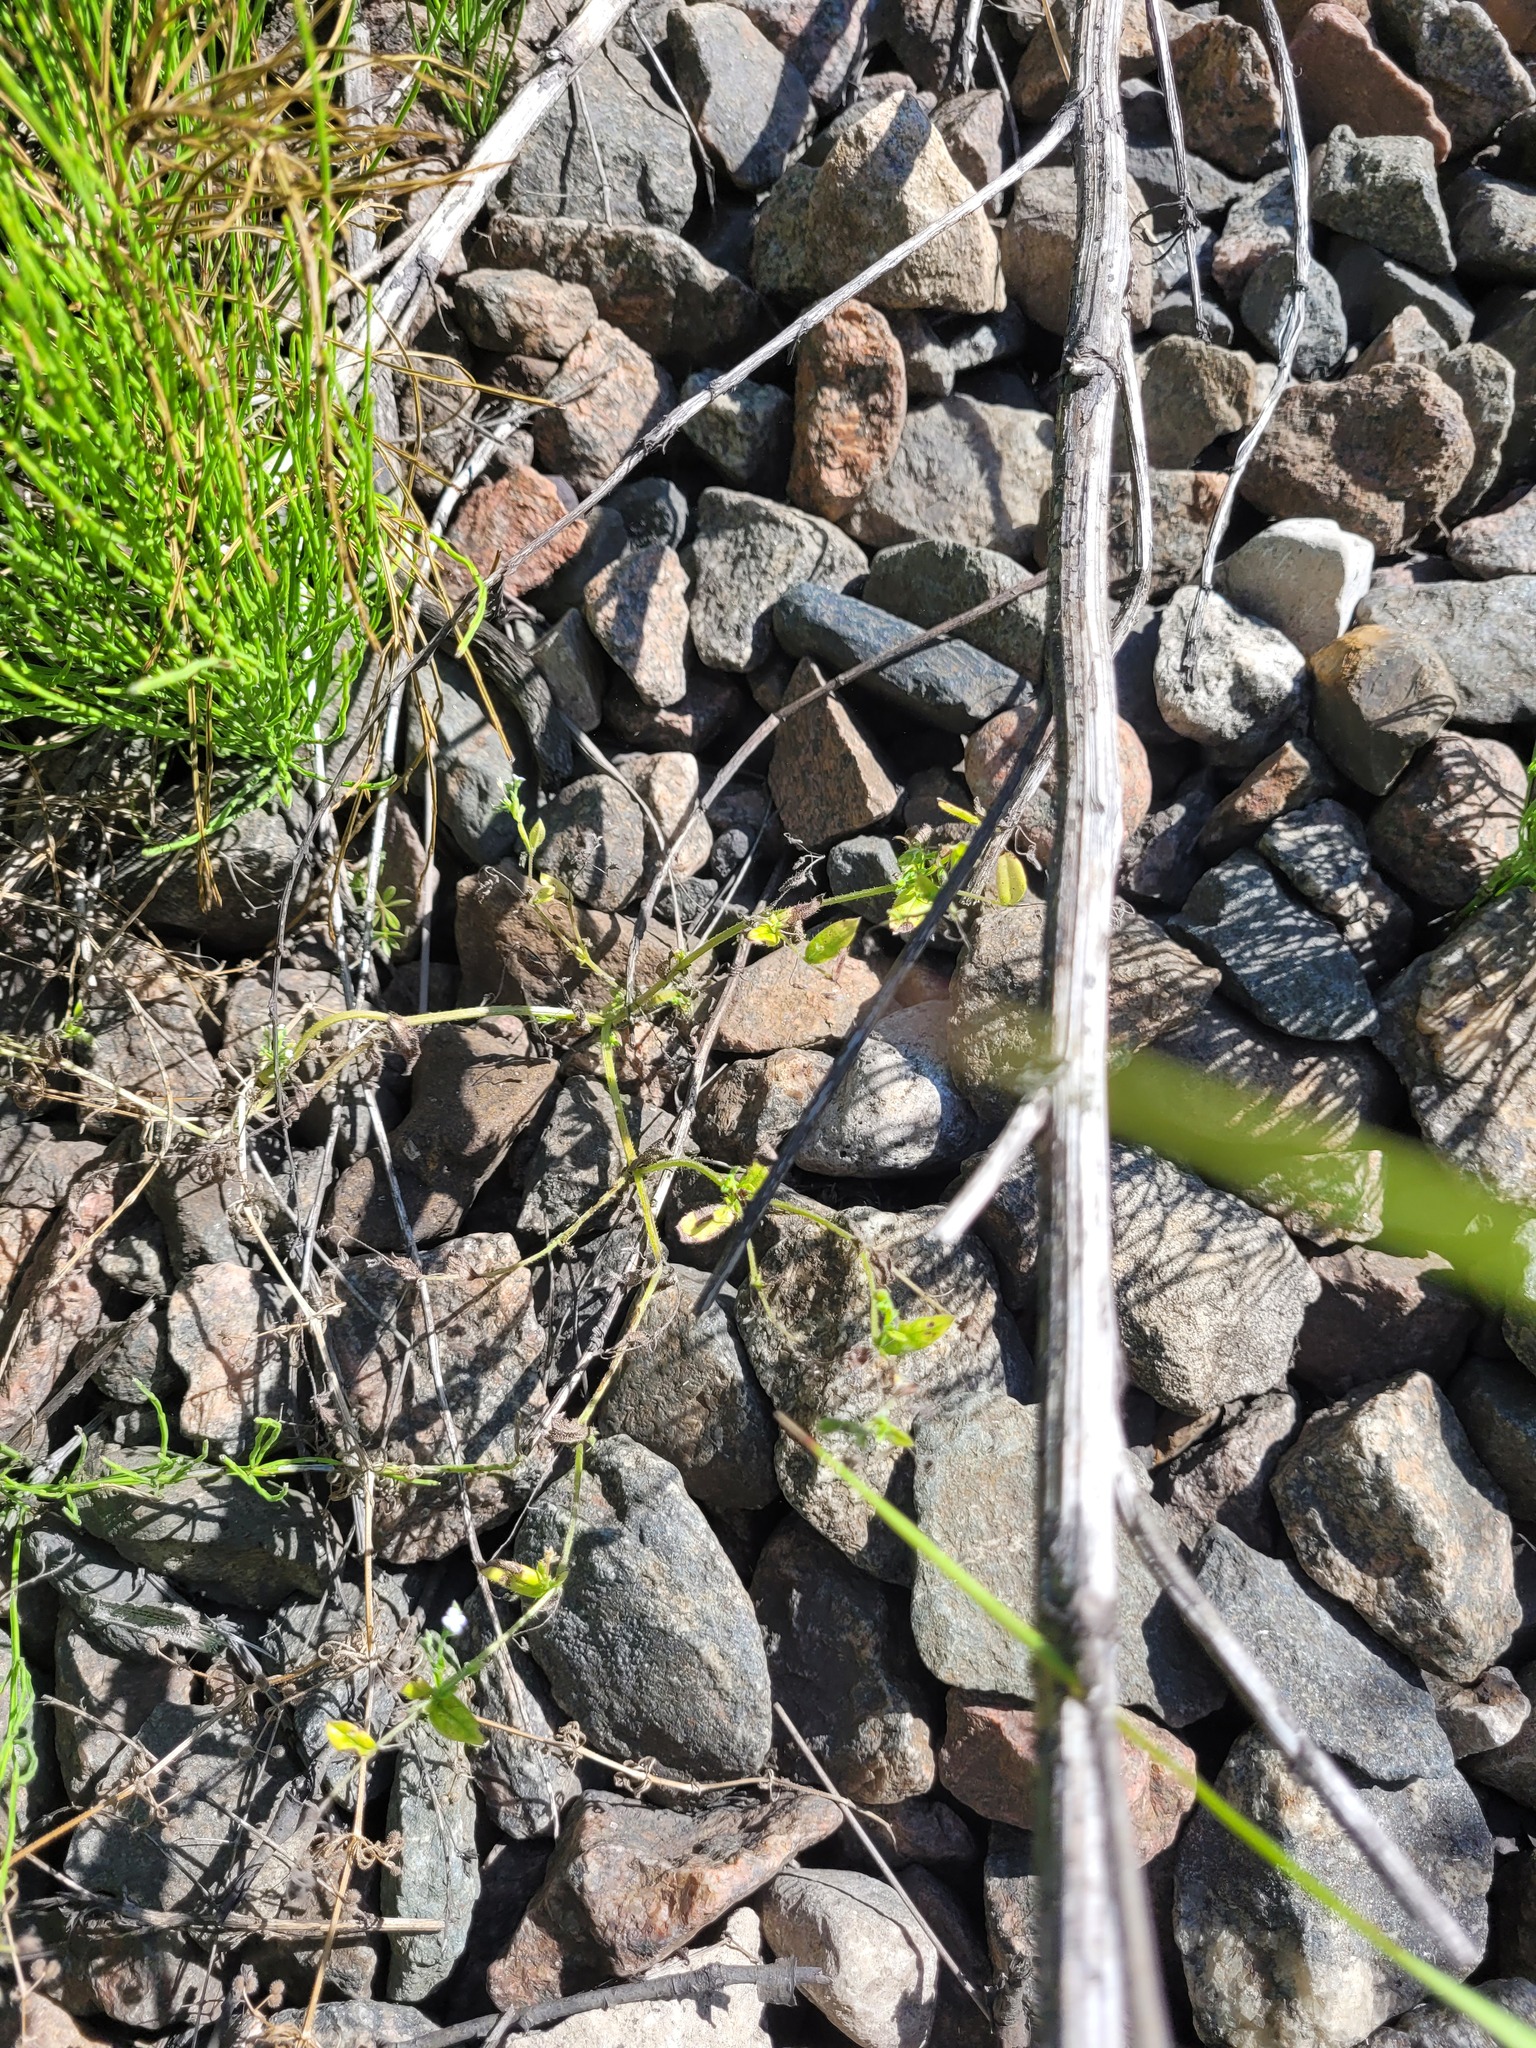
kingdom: Plantae
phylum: Tracheophyta
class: Magnoliopsida
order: Boraginales
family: Boraginaceae
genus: Myosotis
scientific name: Myosotis sparsiflora
